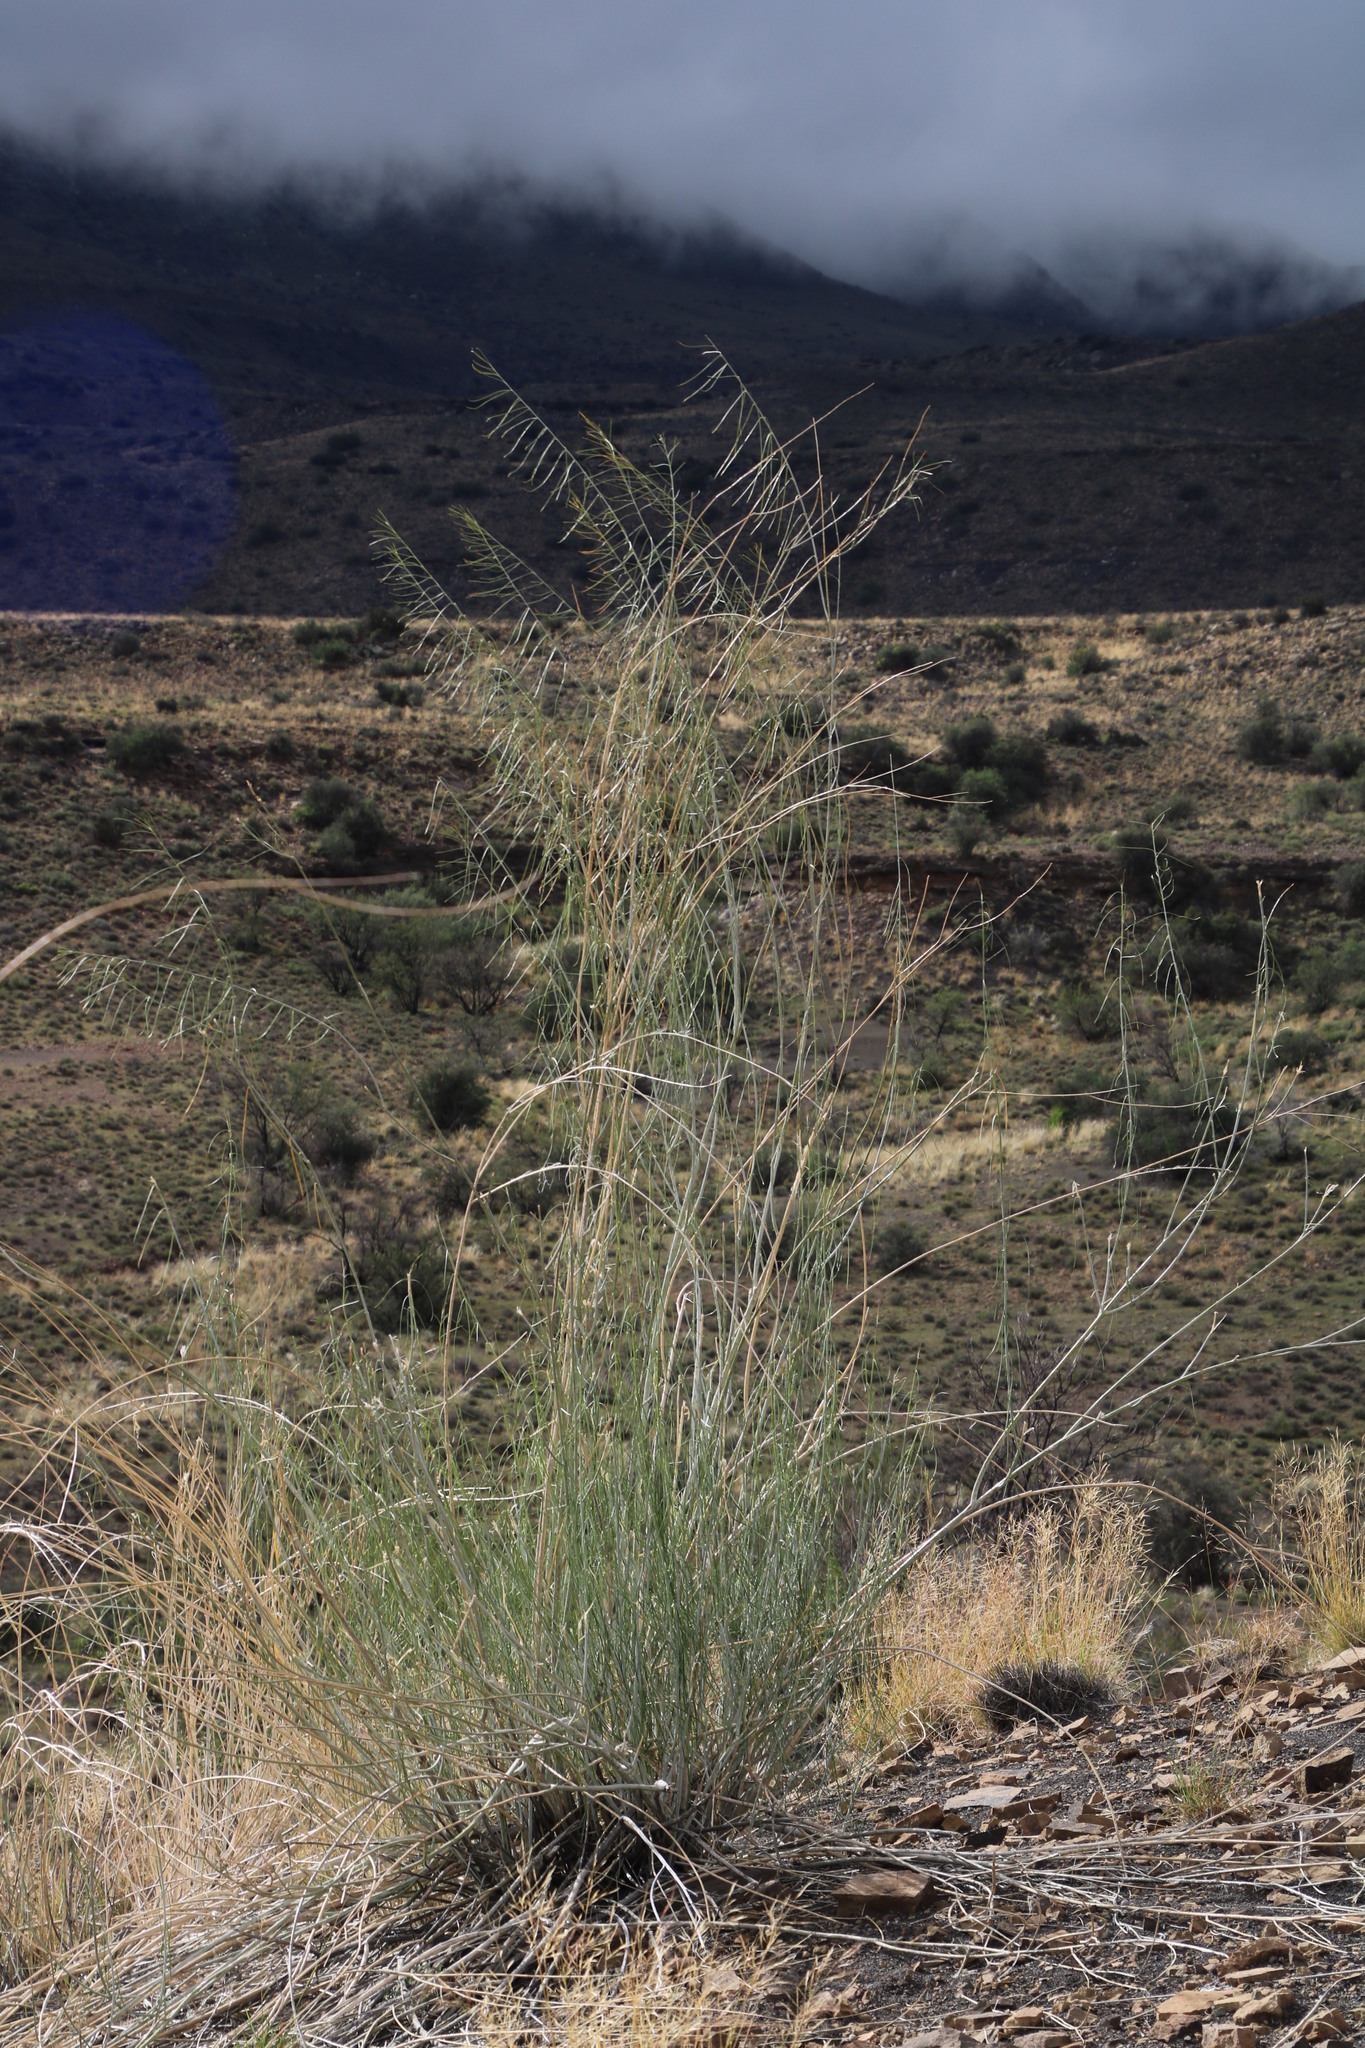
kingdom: Plantae
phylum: Tracheophyta
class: Magnoliopsida
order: Gentianales
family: Apocynaceae
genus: Gomphocarpus
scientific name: Gomphocarpus filiformis
